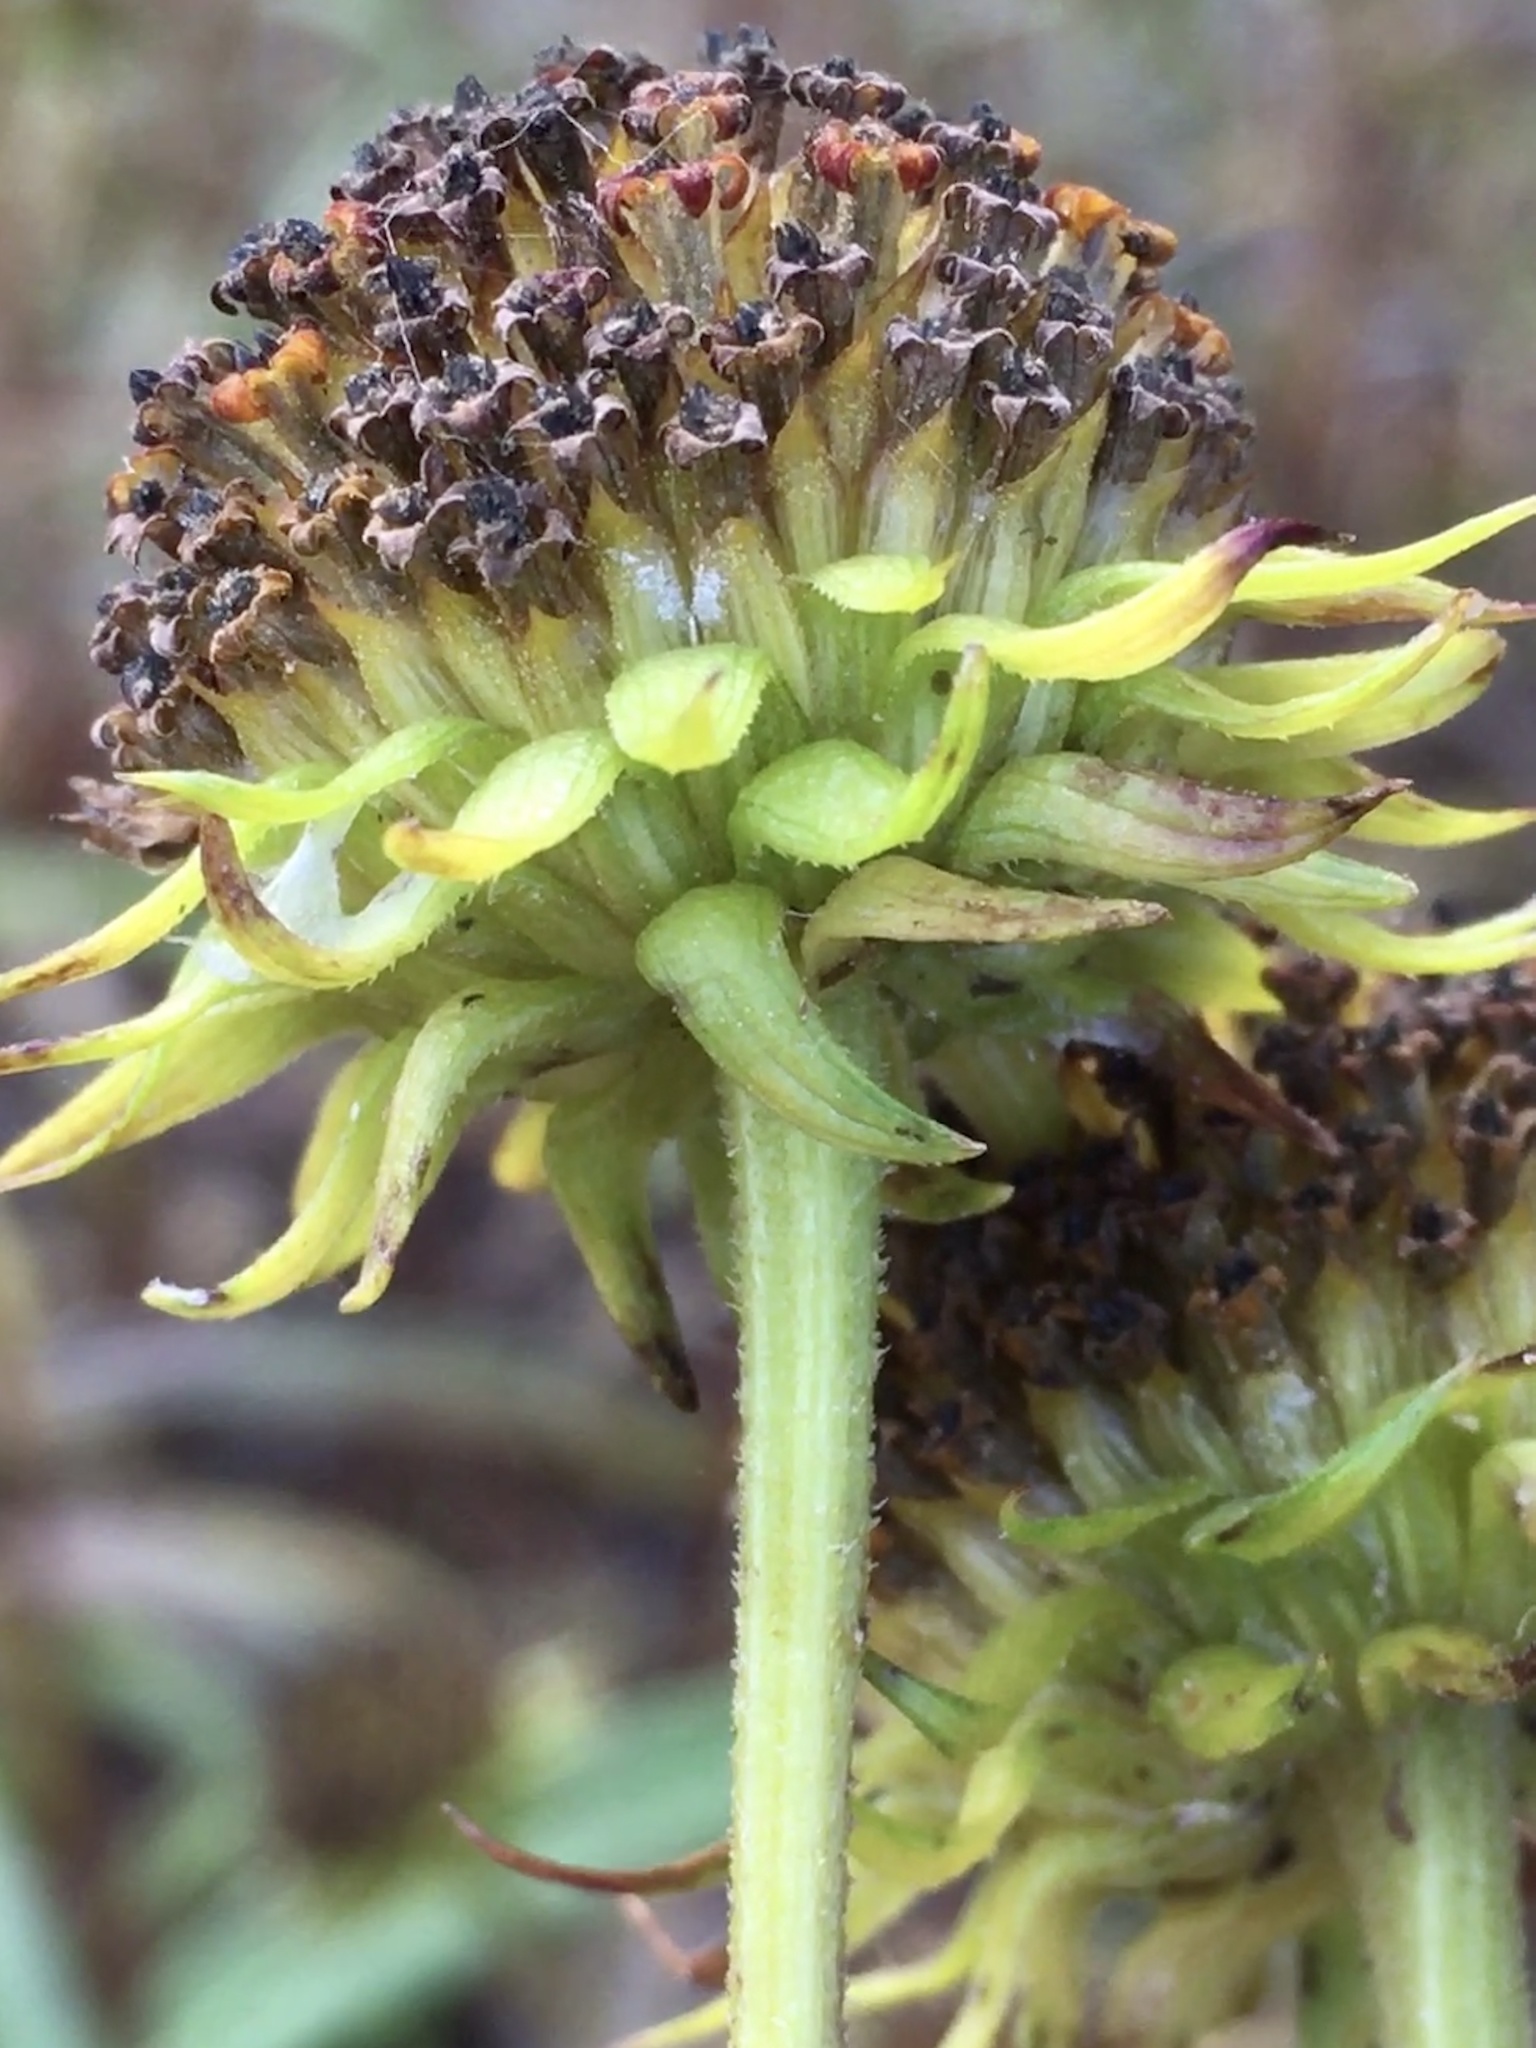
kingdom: Plantae
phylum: Tracheophyta
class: Magnoliopsida
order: Asterales
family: Asteraceae
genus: Helianthus
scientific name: Helianthus angustifolius
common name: Swamp sunflower
